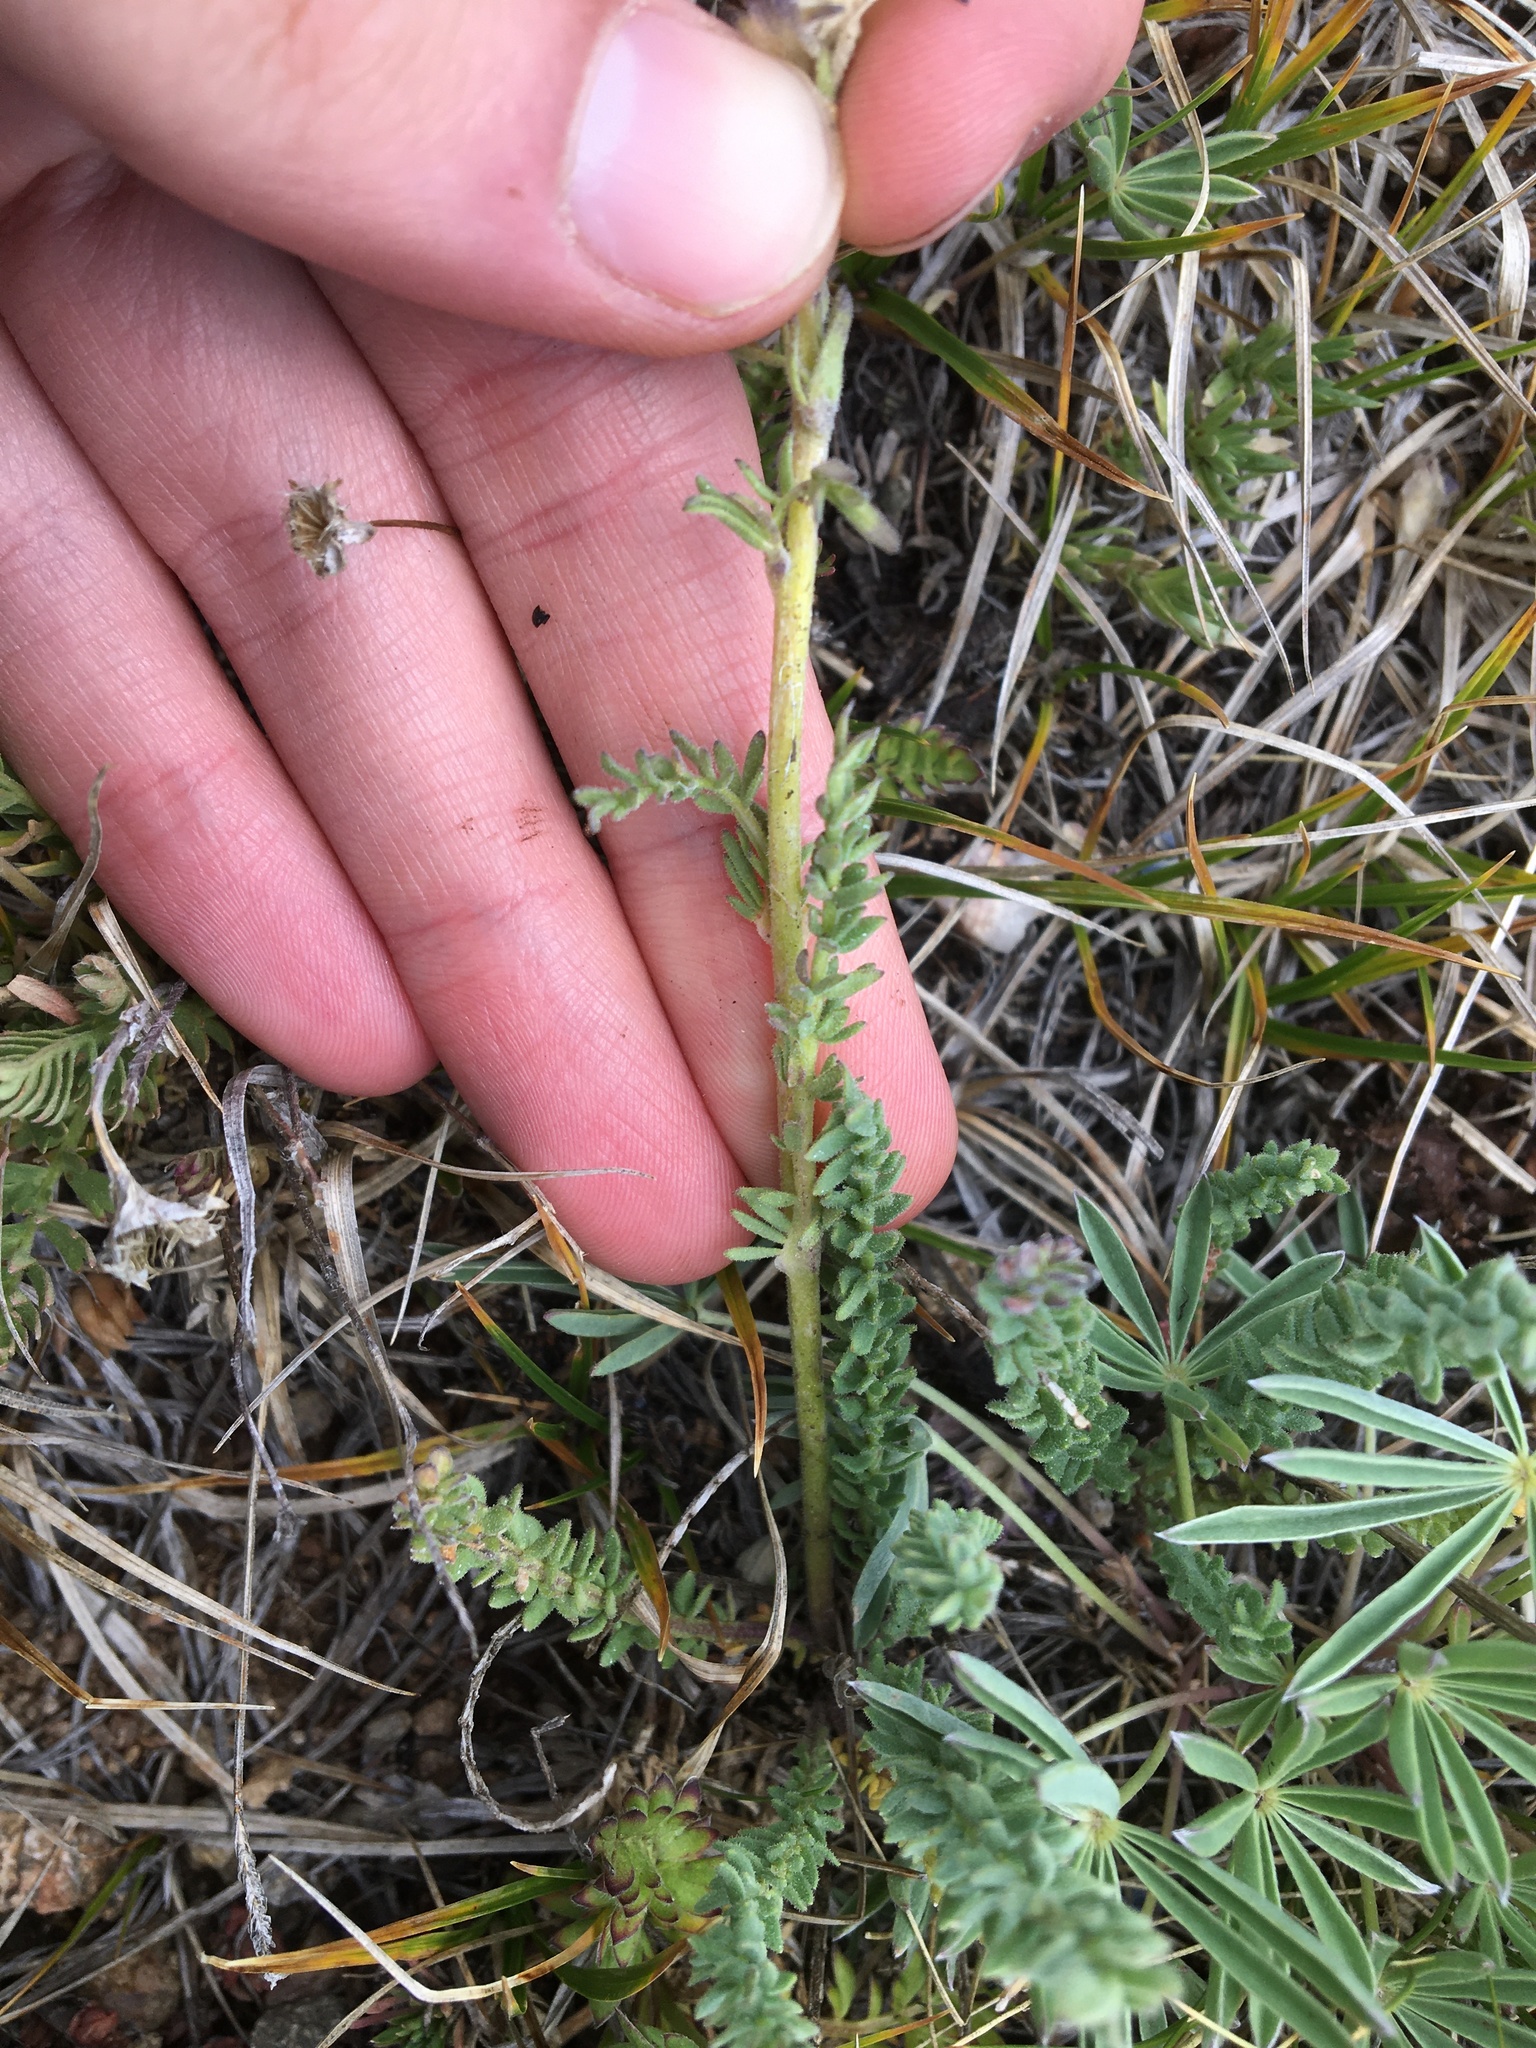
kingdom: Plantae
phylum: Tracheophyta
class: Magnoliopsida
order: Ericales
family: Polemoniaceae
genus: Polemonium
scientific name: Polemonium viscosum
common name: Skunk jacob's-ladder
